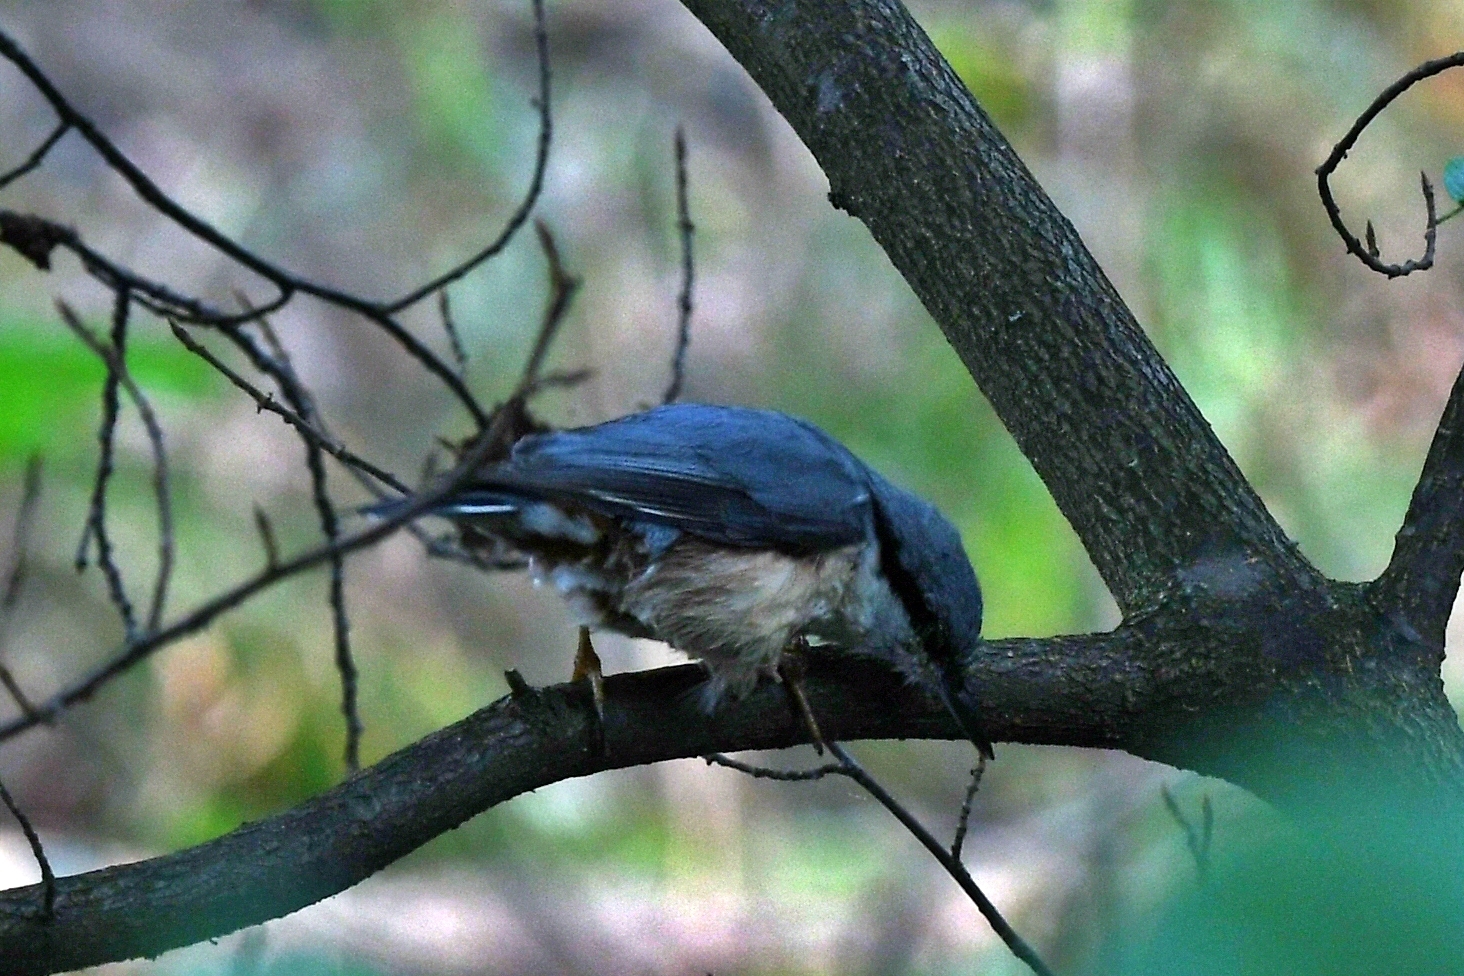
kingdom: Animalia
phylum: Chordata
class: Aves
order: Passeriformes
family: Sittidae
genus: Sitta
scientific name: Sitta europaea
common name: Eurasian nuthatch
